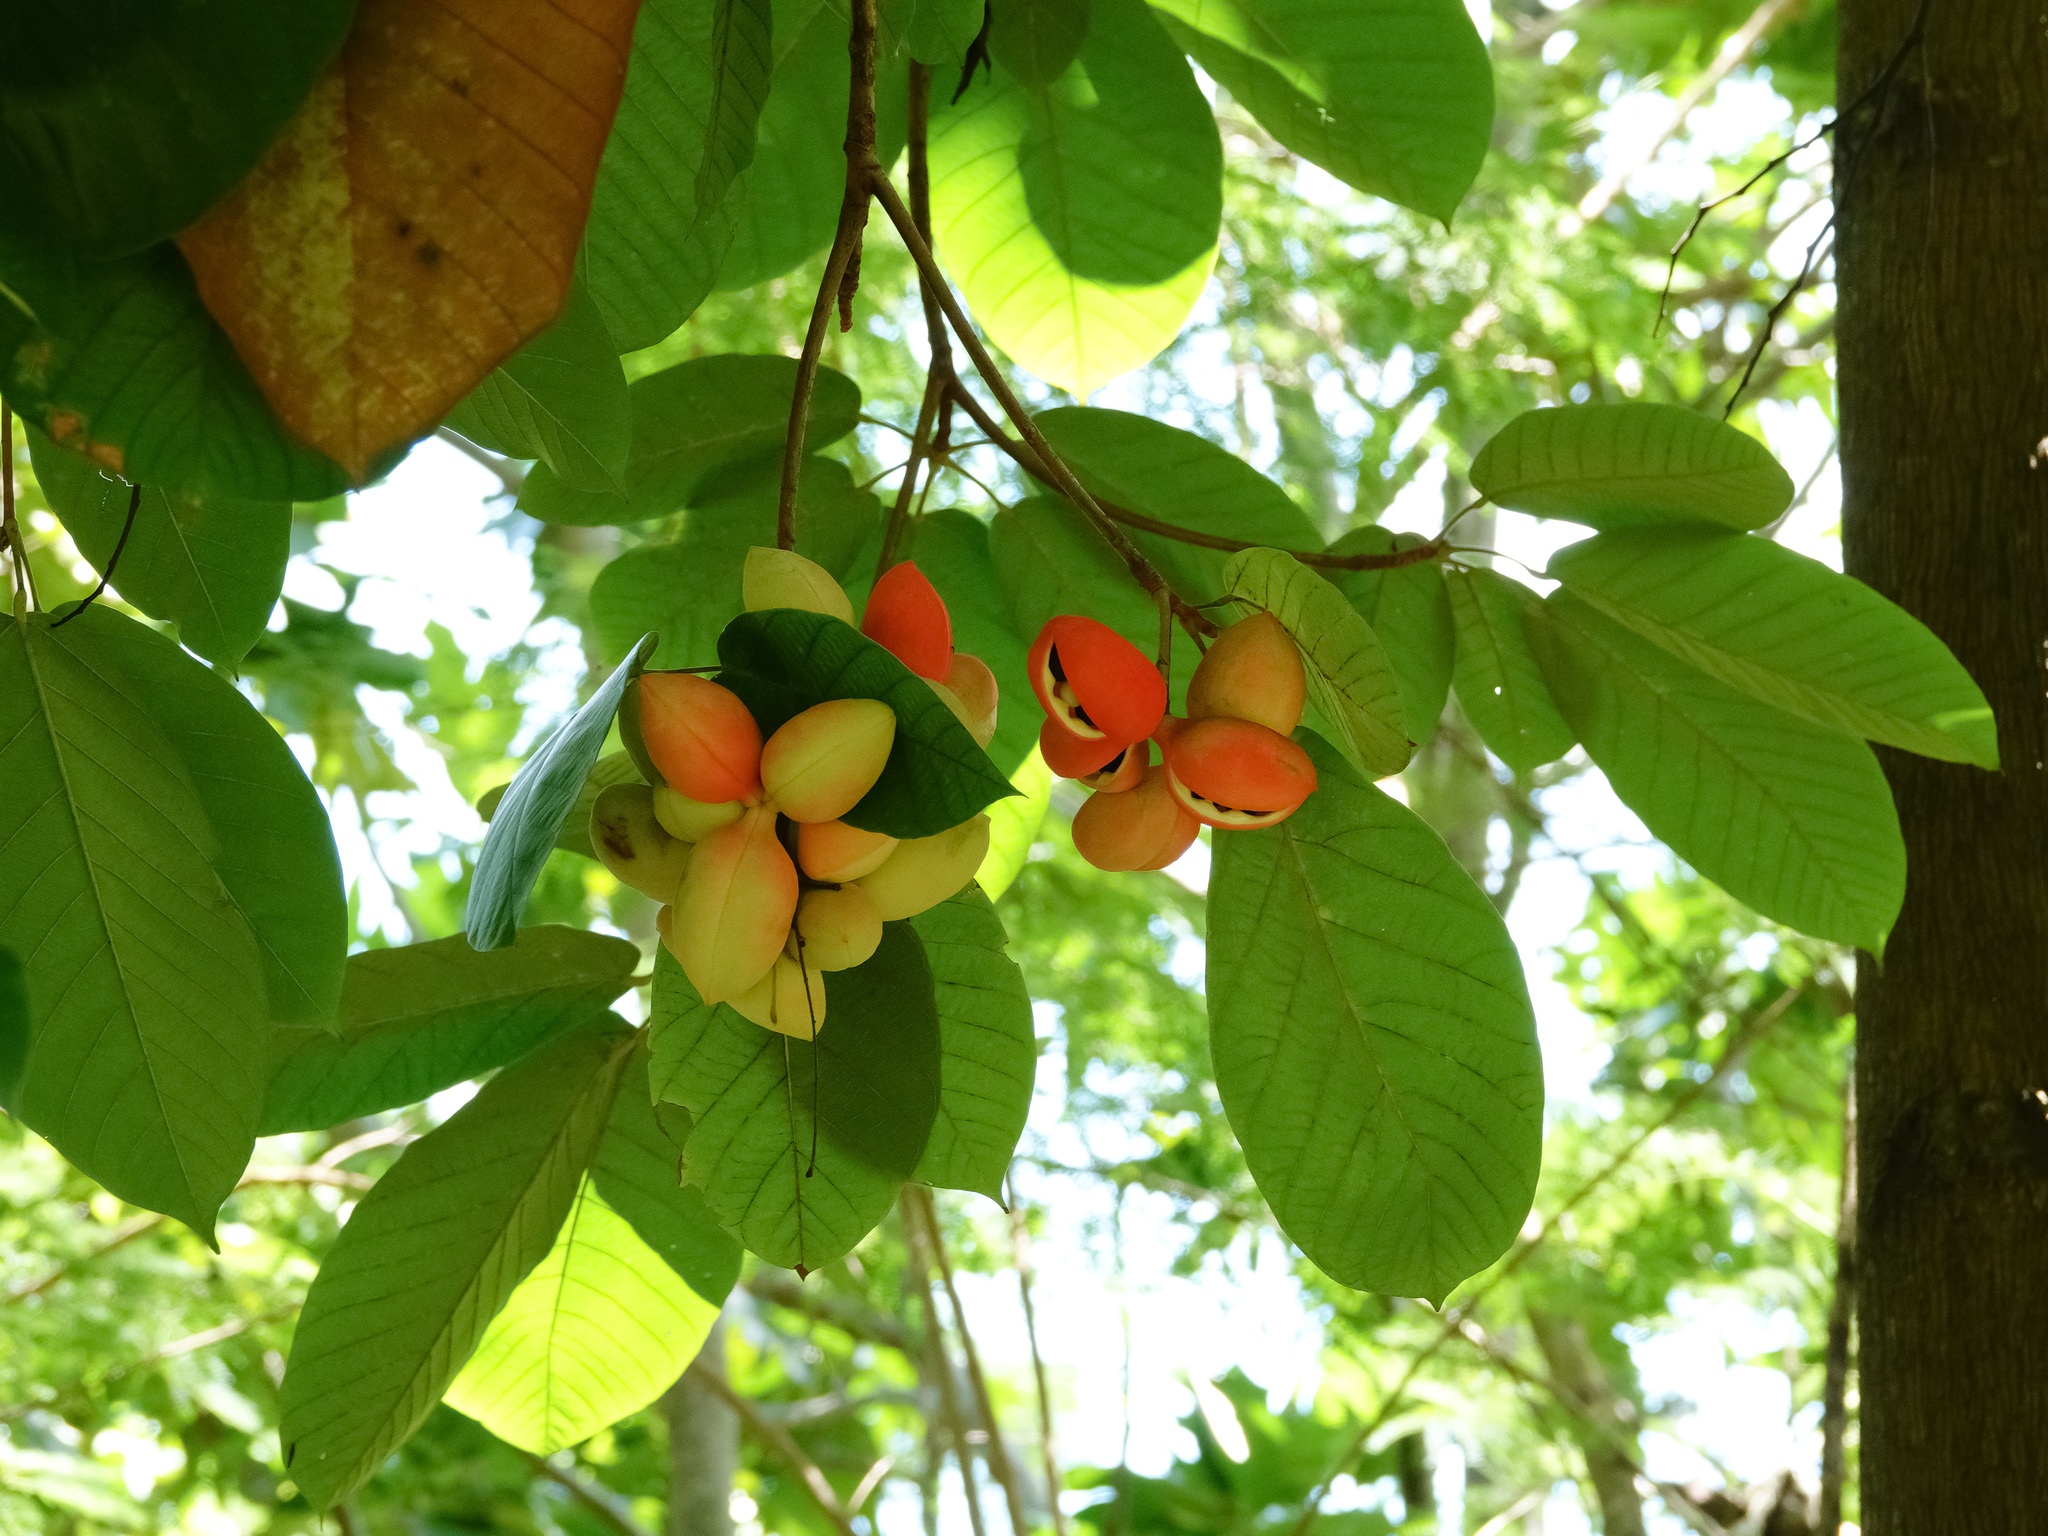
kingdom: Plantae
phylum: Tracheophyta
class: Magnoliopsida
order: Malvales
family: Malvaceae
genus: Sterculia
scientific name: Sterculia cordata
